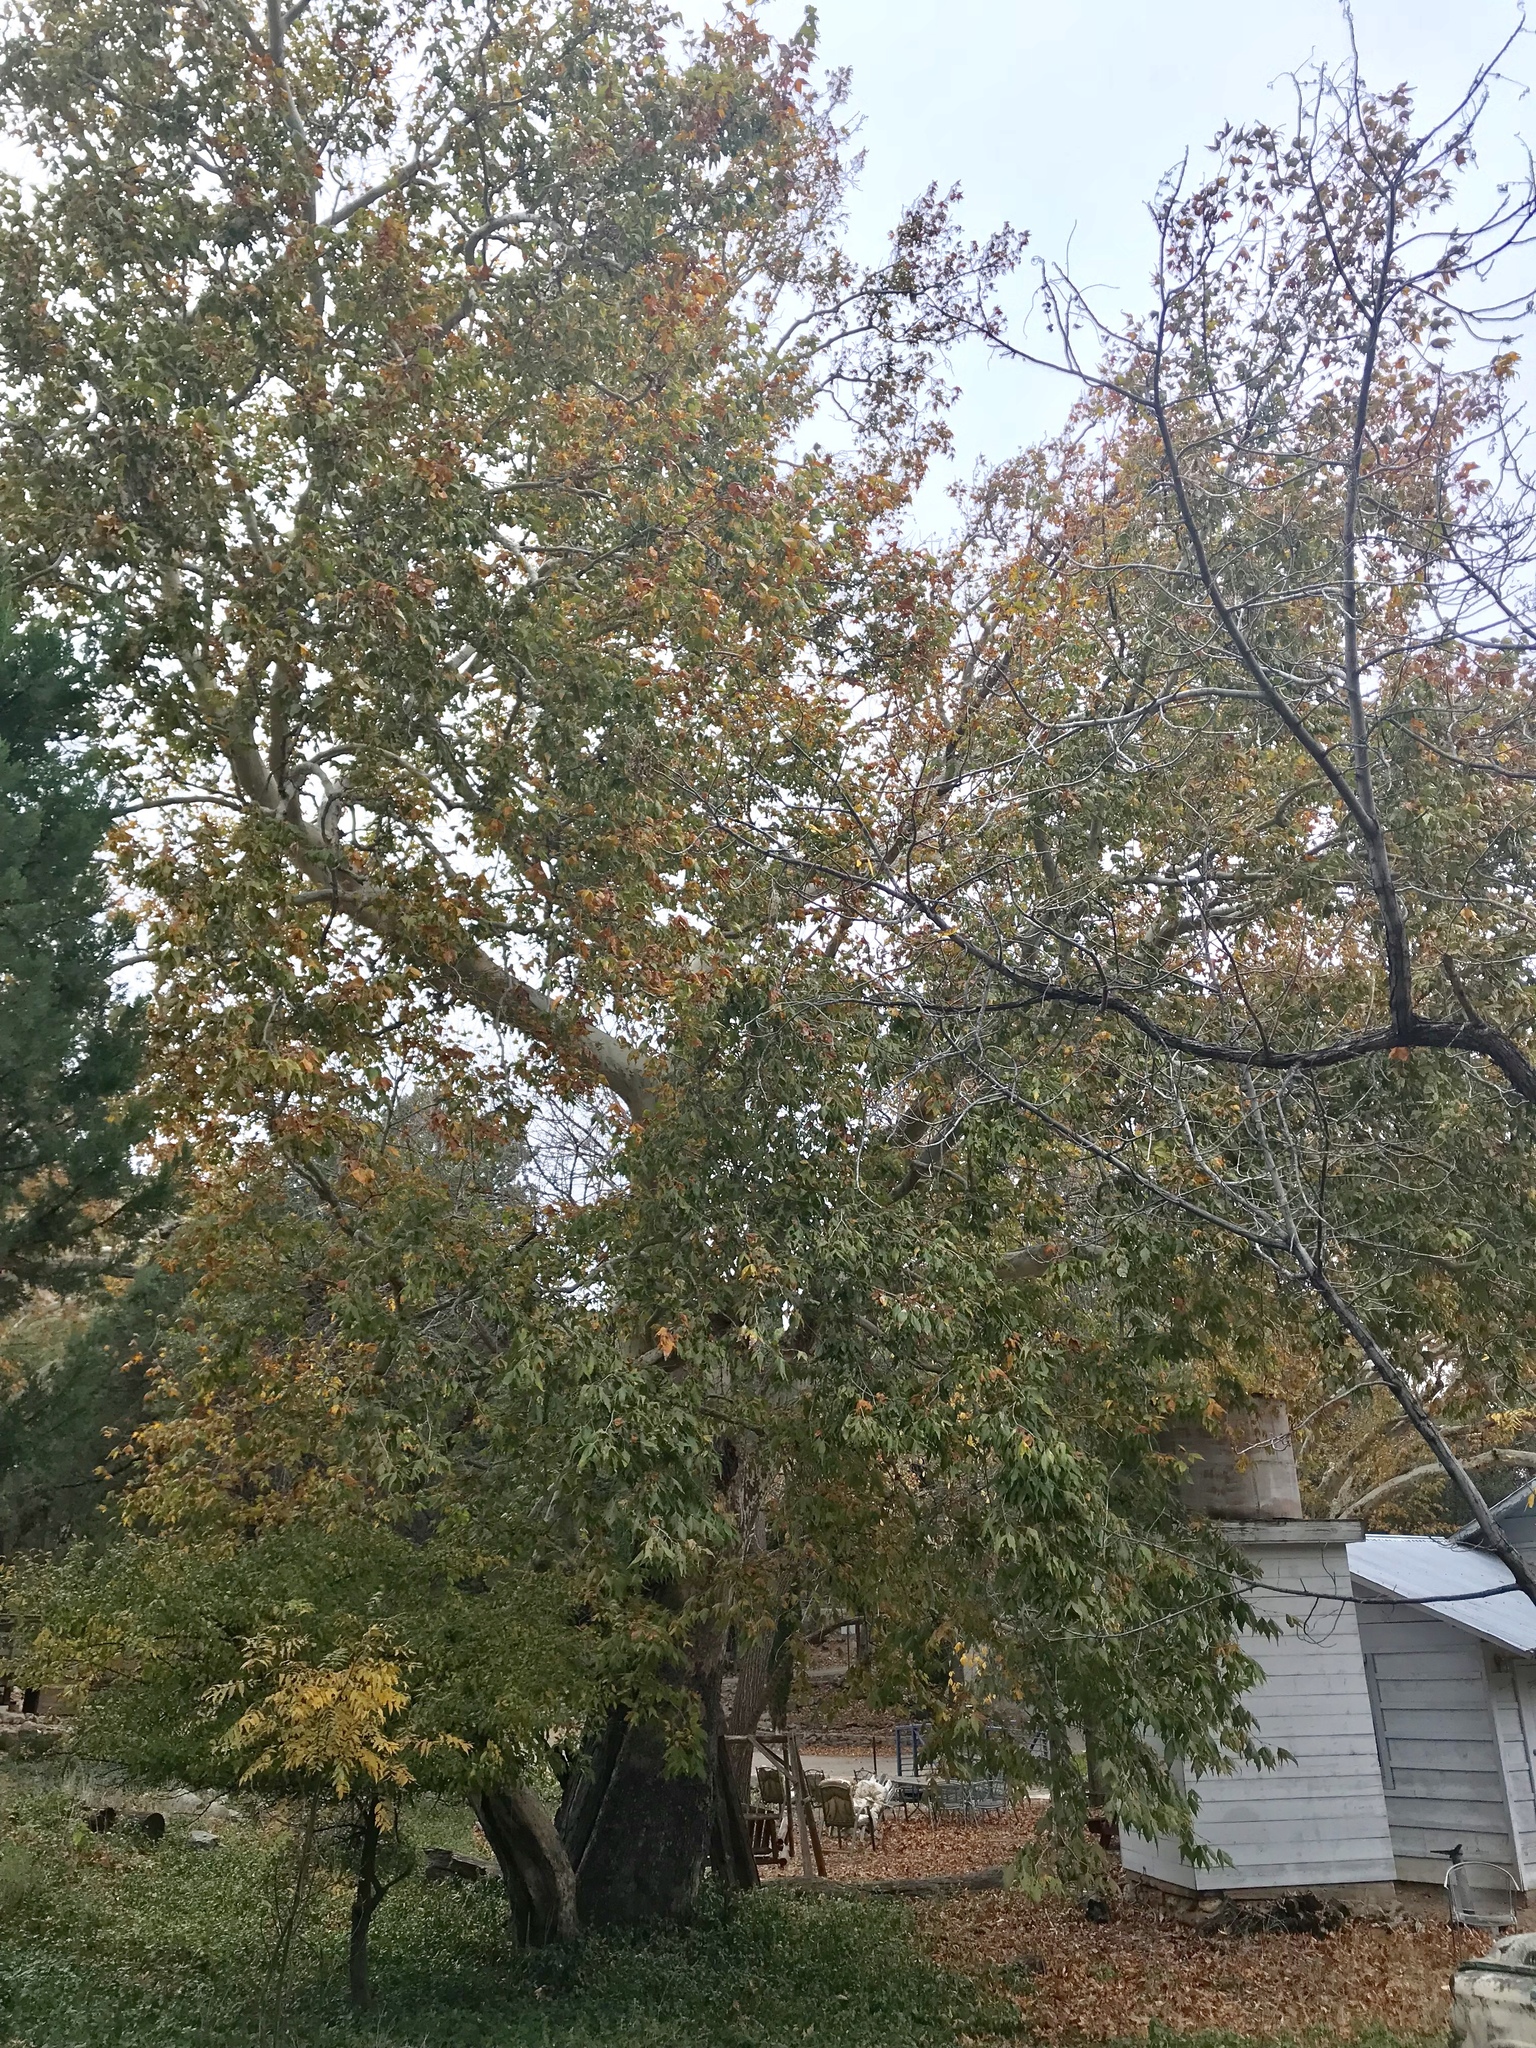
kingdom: Plantae
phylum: Tracheophyta
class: Magnoliopsida
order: Proteales
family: Platanaceae
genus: Platanus
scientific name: Platanus wrightii
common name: Arizona sycamore
